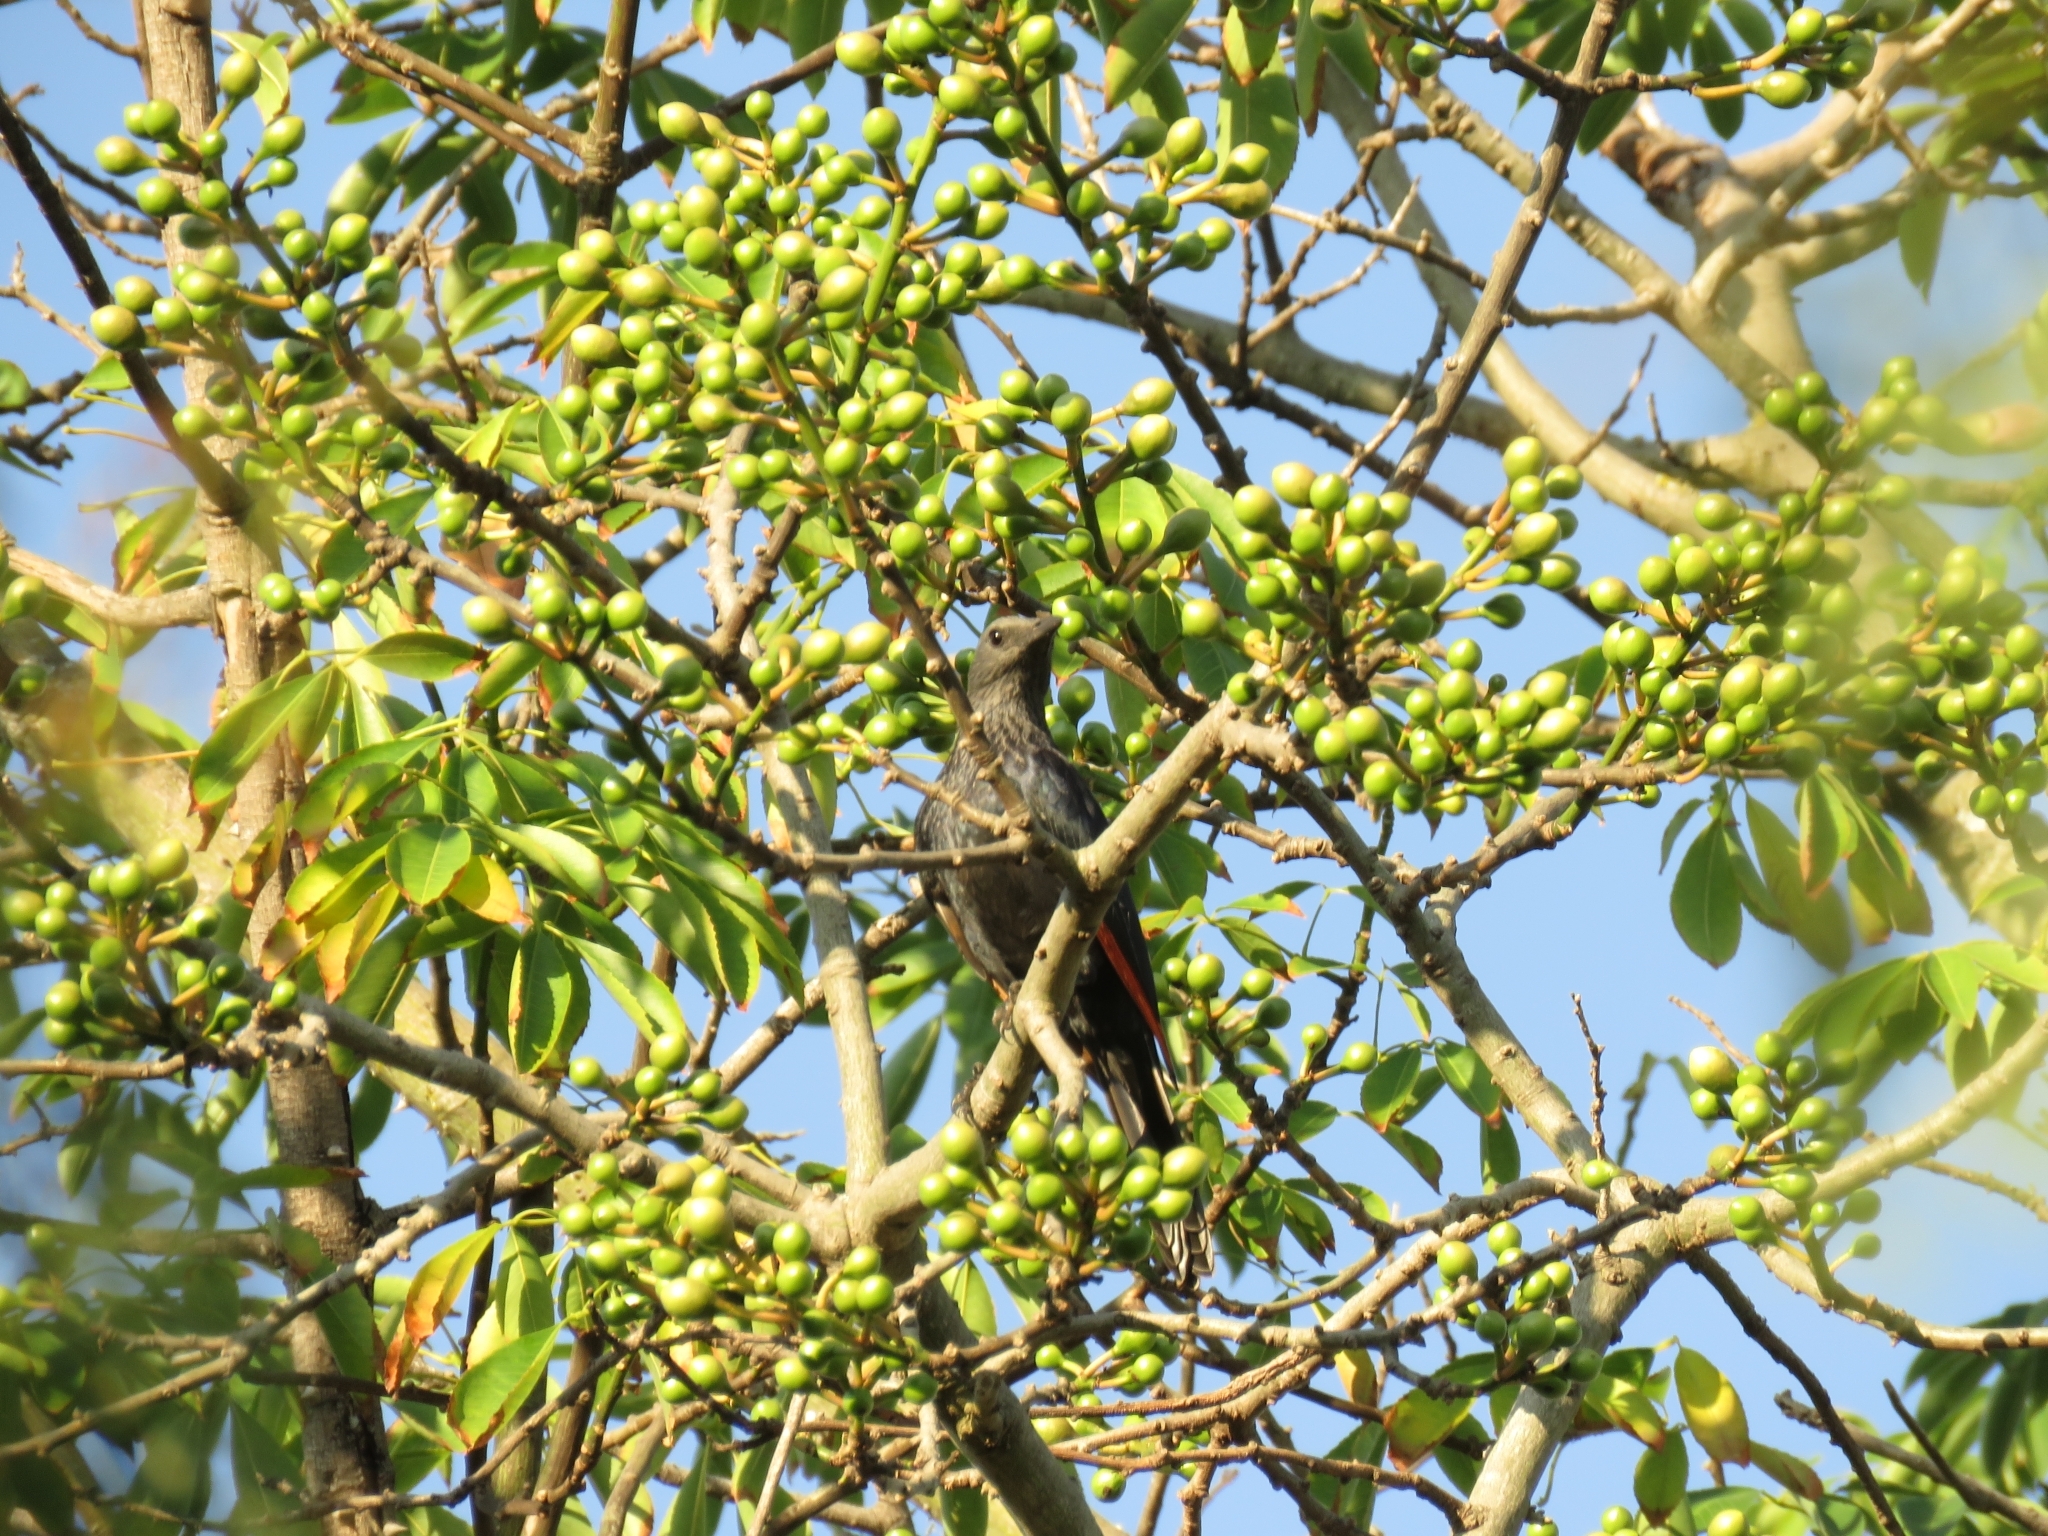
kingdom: Animalia
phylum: Chordata
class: Aves
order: Passeriformes
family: Sturnidae
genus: Onychognathus
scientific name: Onychognathus morio
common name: Red-winged starling
